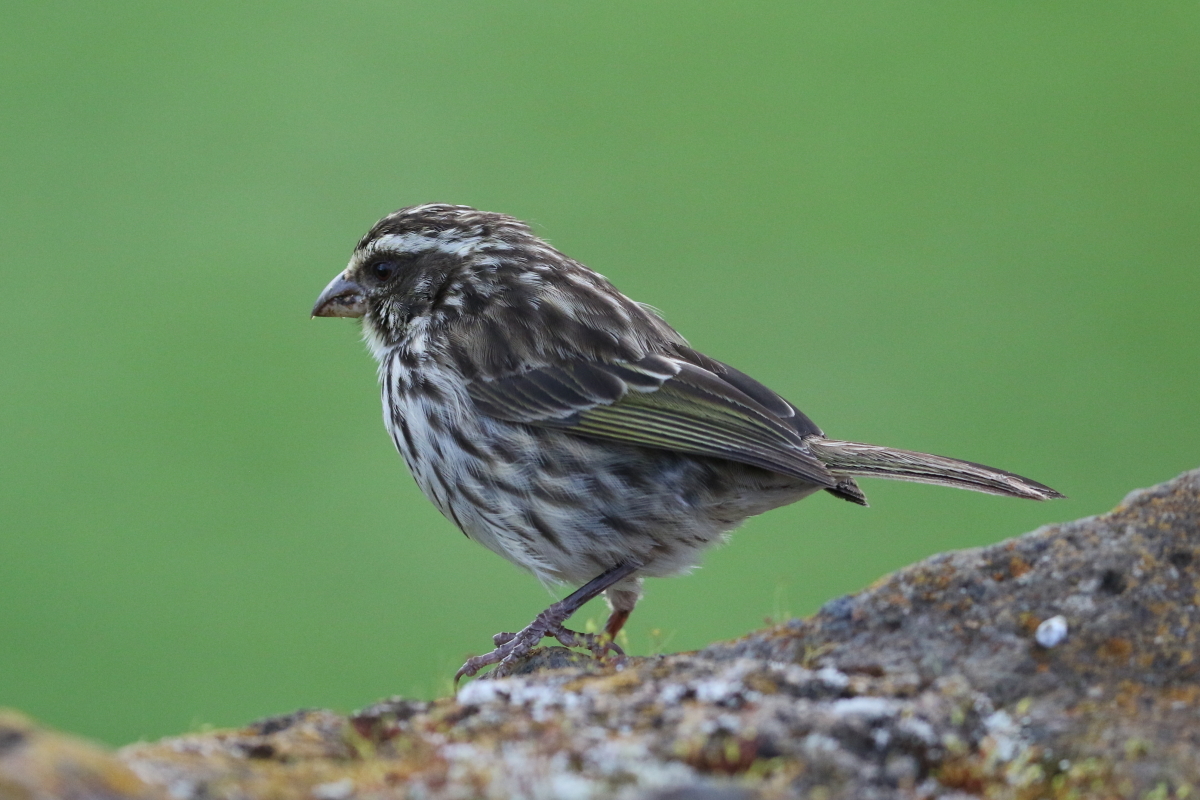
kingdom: Animalia
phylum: Chordata
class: Aves
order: Passeriformes
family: Fringillidae
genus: Crithagra
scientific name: Crithagra striolata
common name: Streaky seedeater
